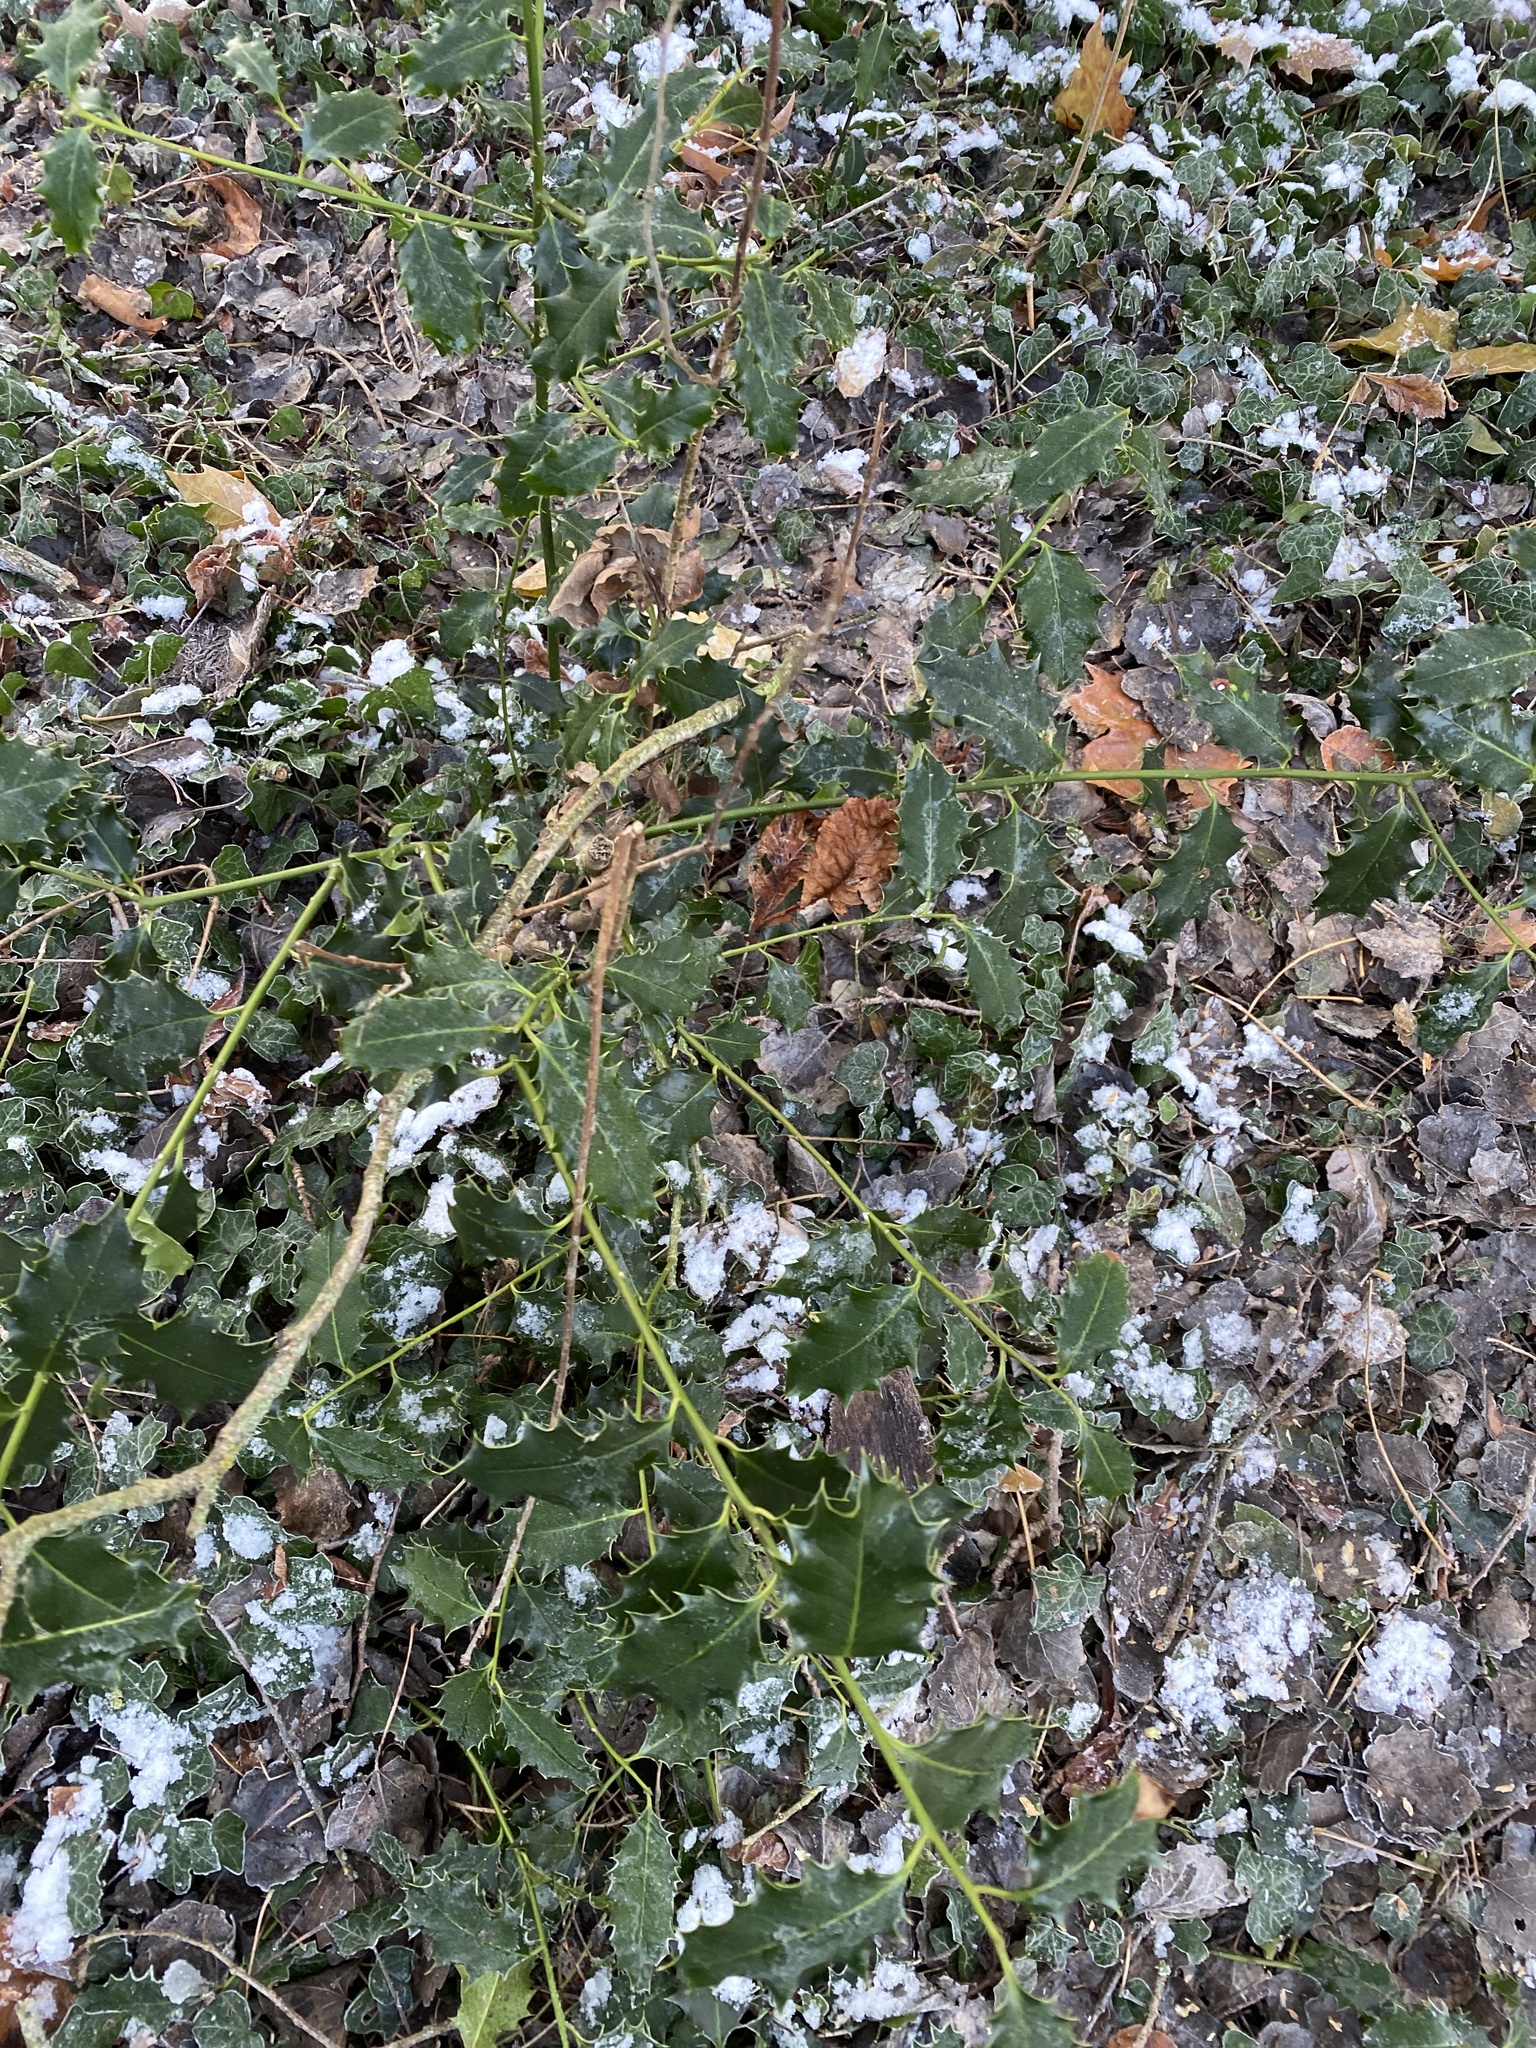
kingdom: Plantae
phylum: Tracheophyta
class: Magnoliopsida
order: Aquifoliales
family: Aquifoliaceae
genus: Ilex
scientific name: Ilex aquifolium
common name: English holly
